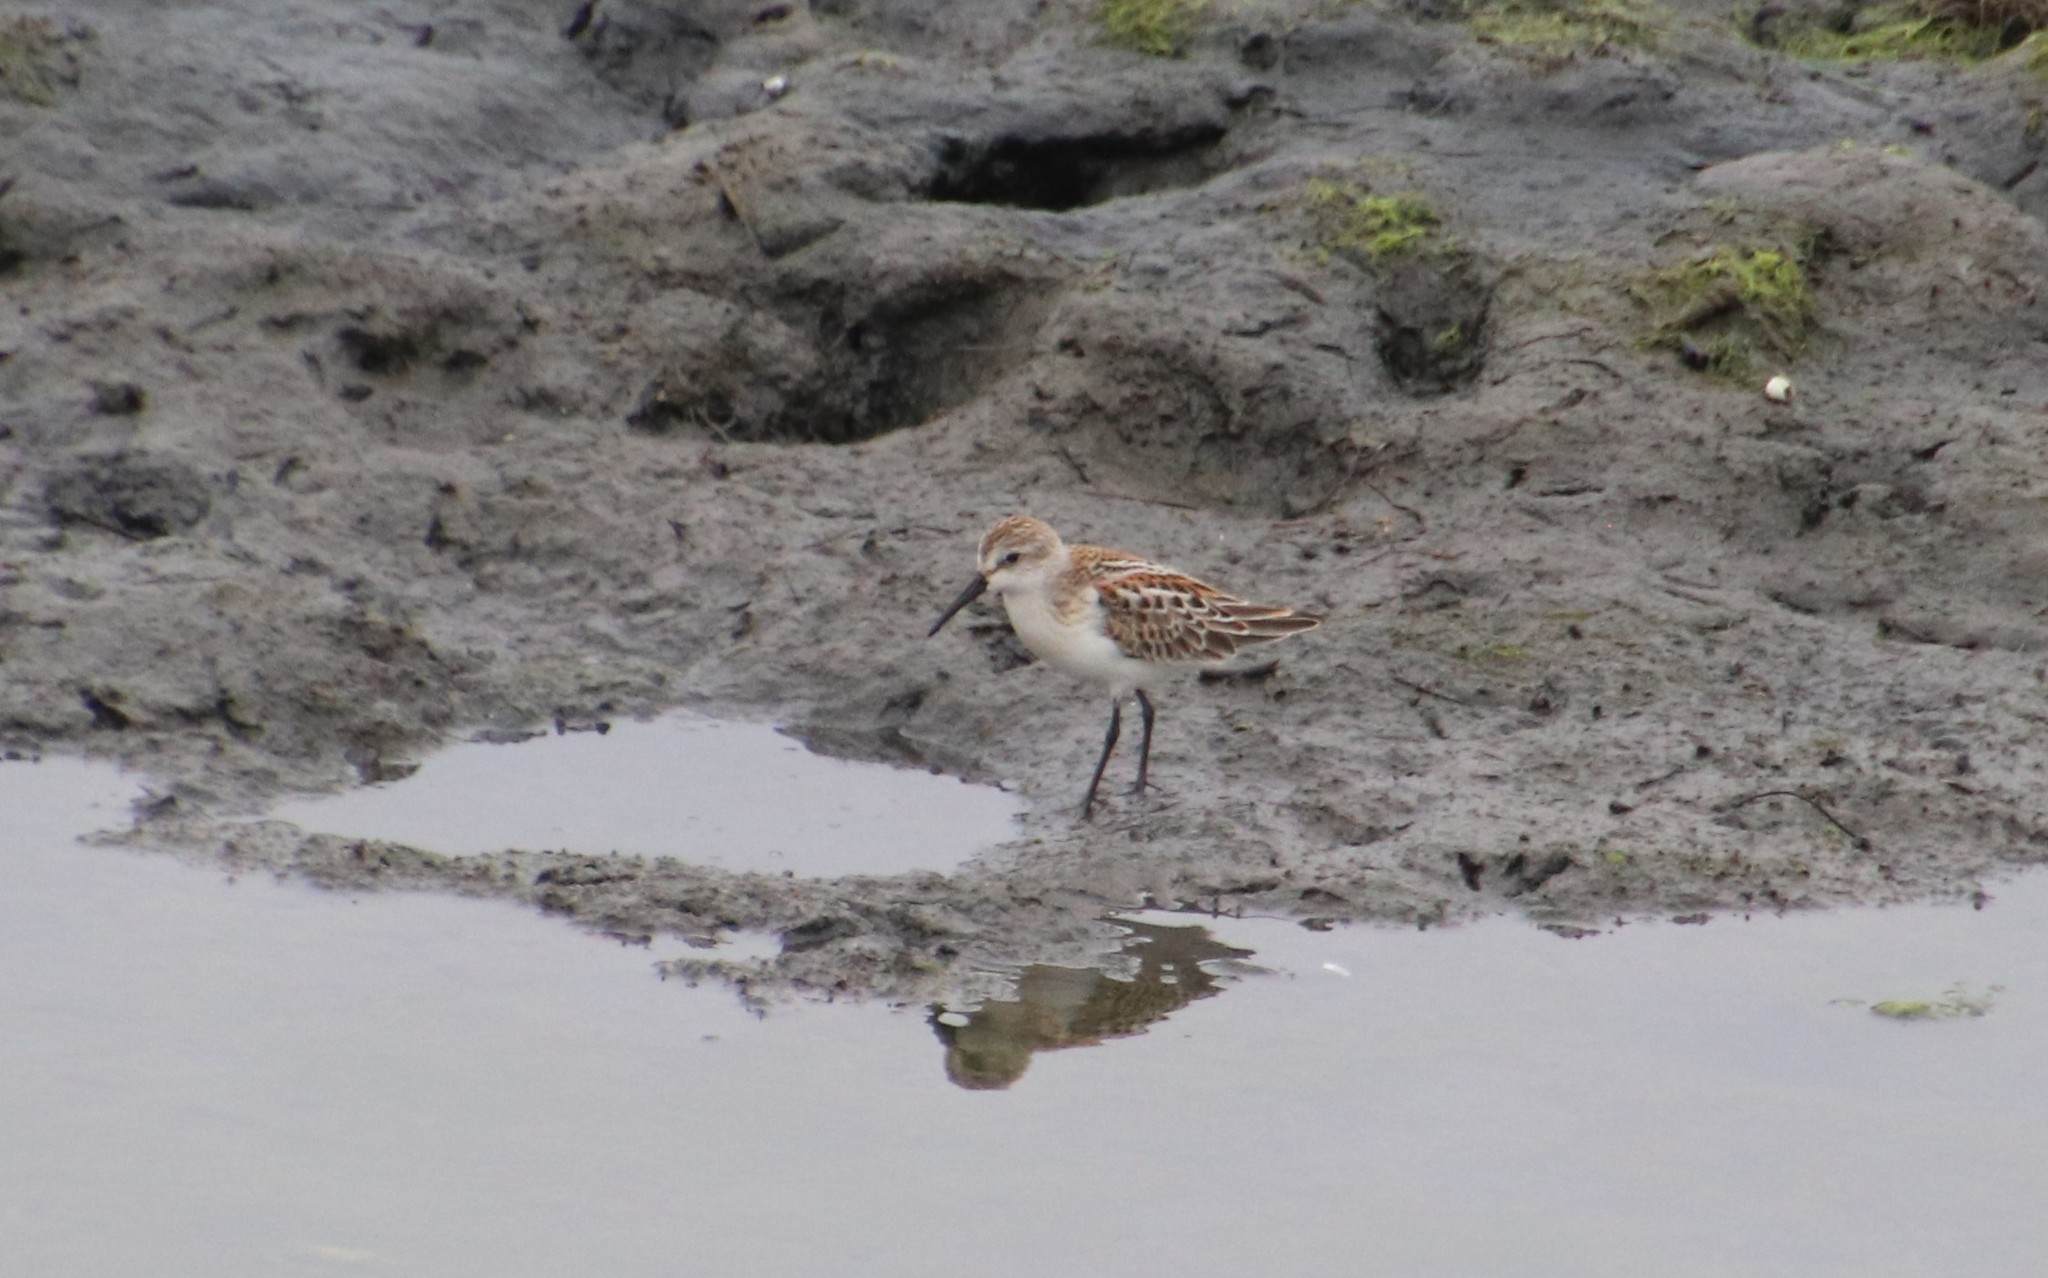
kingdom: Animalia
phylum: Chordata
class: Aves
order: Charadriiformes
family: Scolopacidae
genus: Calidris
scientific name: Calidris mauri
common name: Western sandpiper
